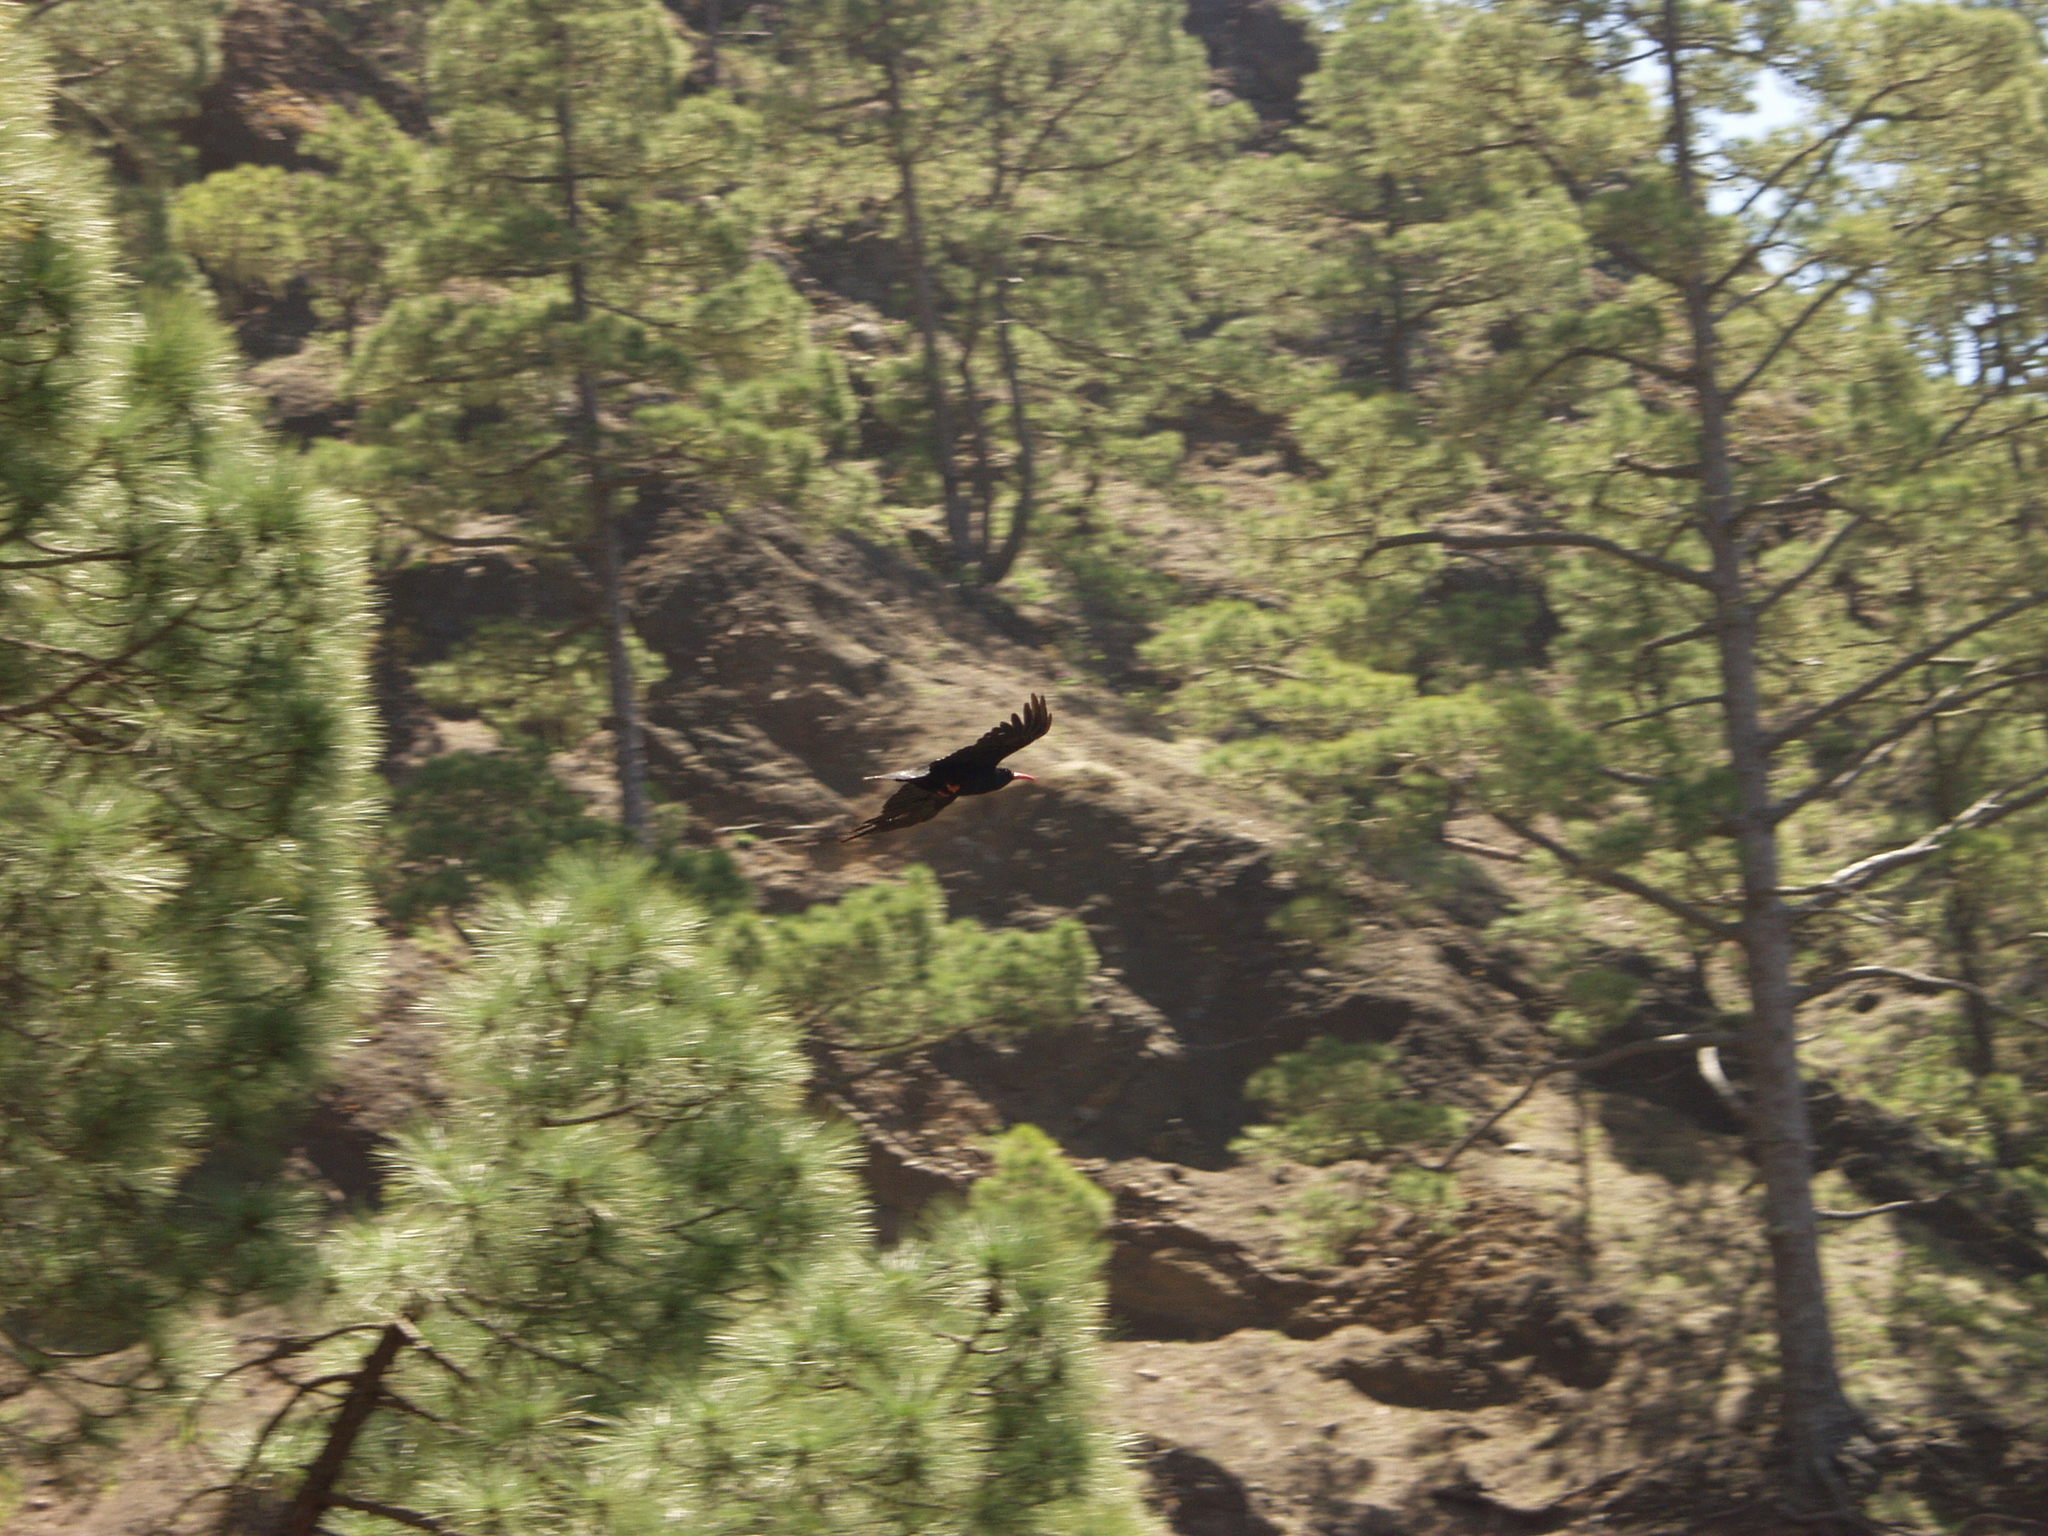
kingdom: Animalia
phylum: Chordata
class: Aves
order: Passeriformes
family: Corvidae
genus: Pyrrhocorax
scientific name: Pyrrhocorax pyrrhocorax
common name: Red-billed chough
